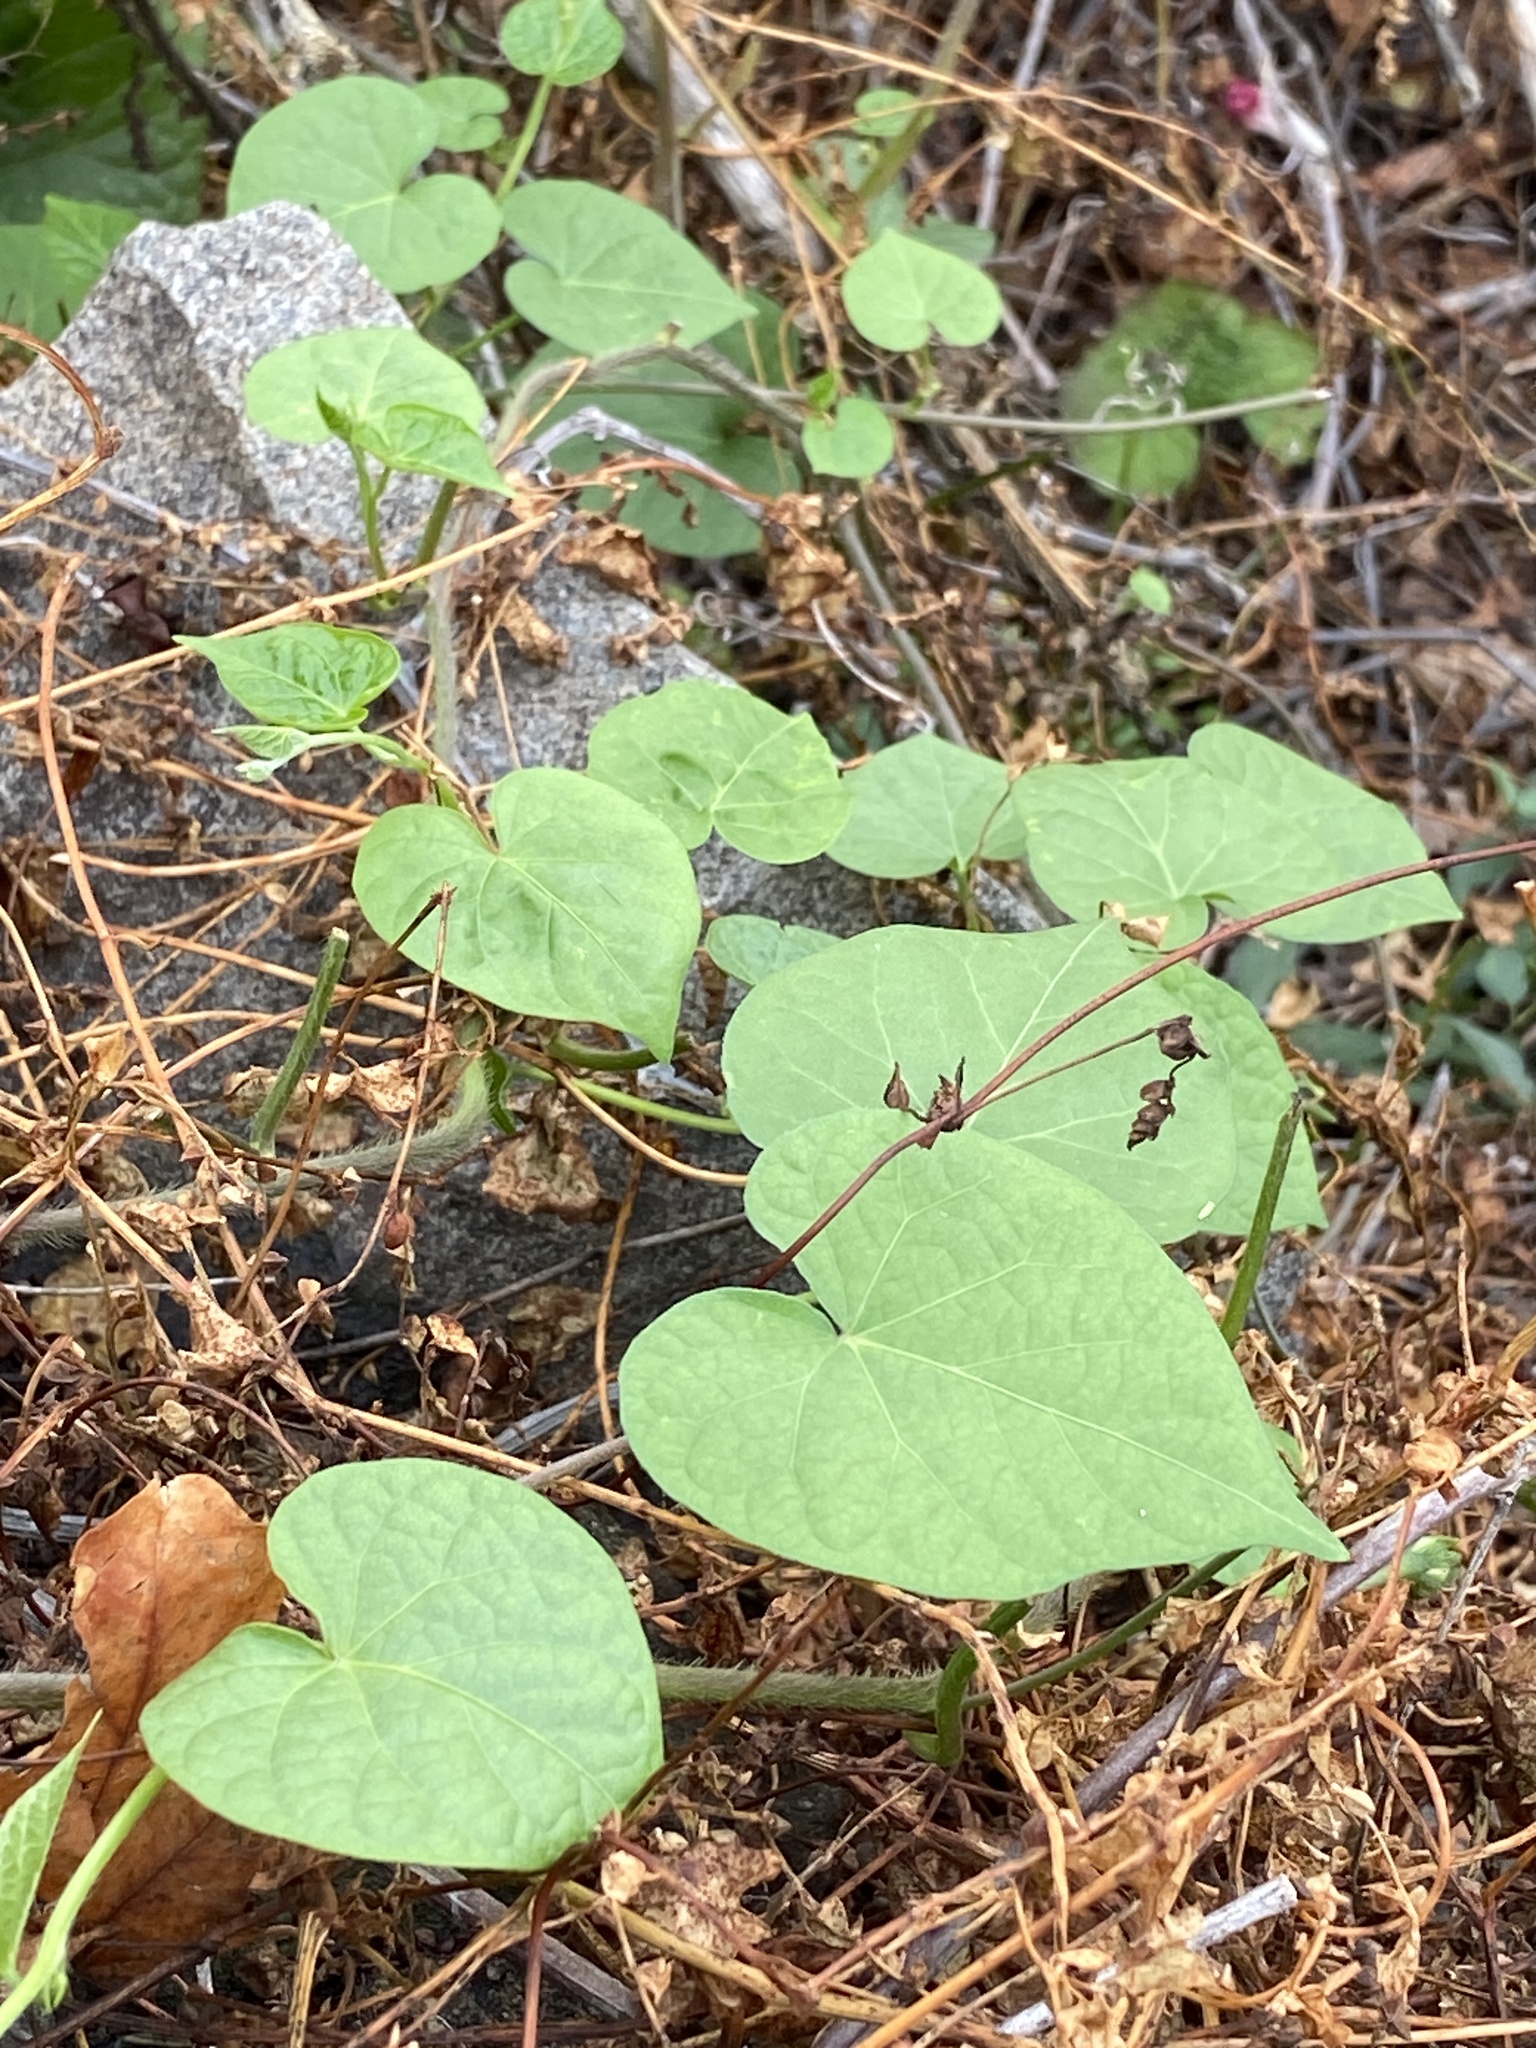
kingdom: Plantae
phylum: Tracheophyta
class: Magnoliopsida
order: Solanales
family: Convolvulaceae
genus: Ipomoea
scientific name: Ipomoea purpurea
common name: Common morning-glory
